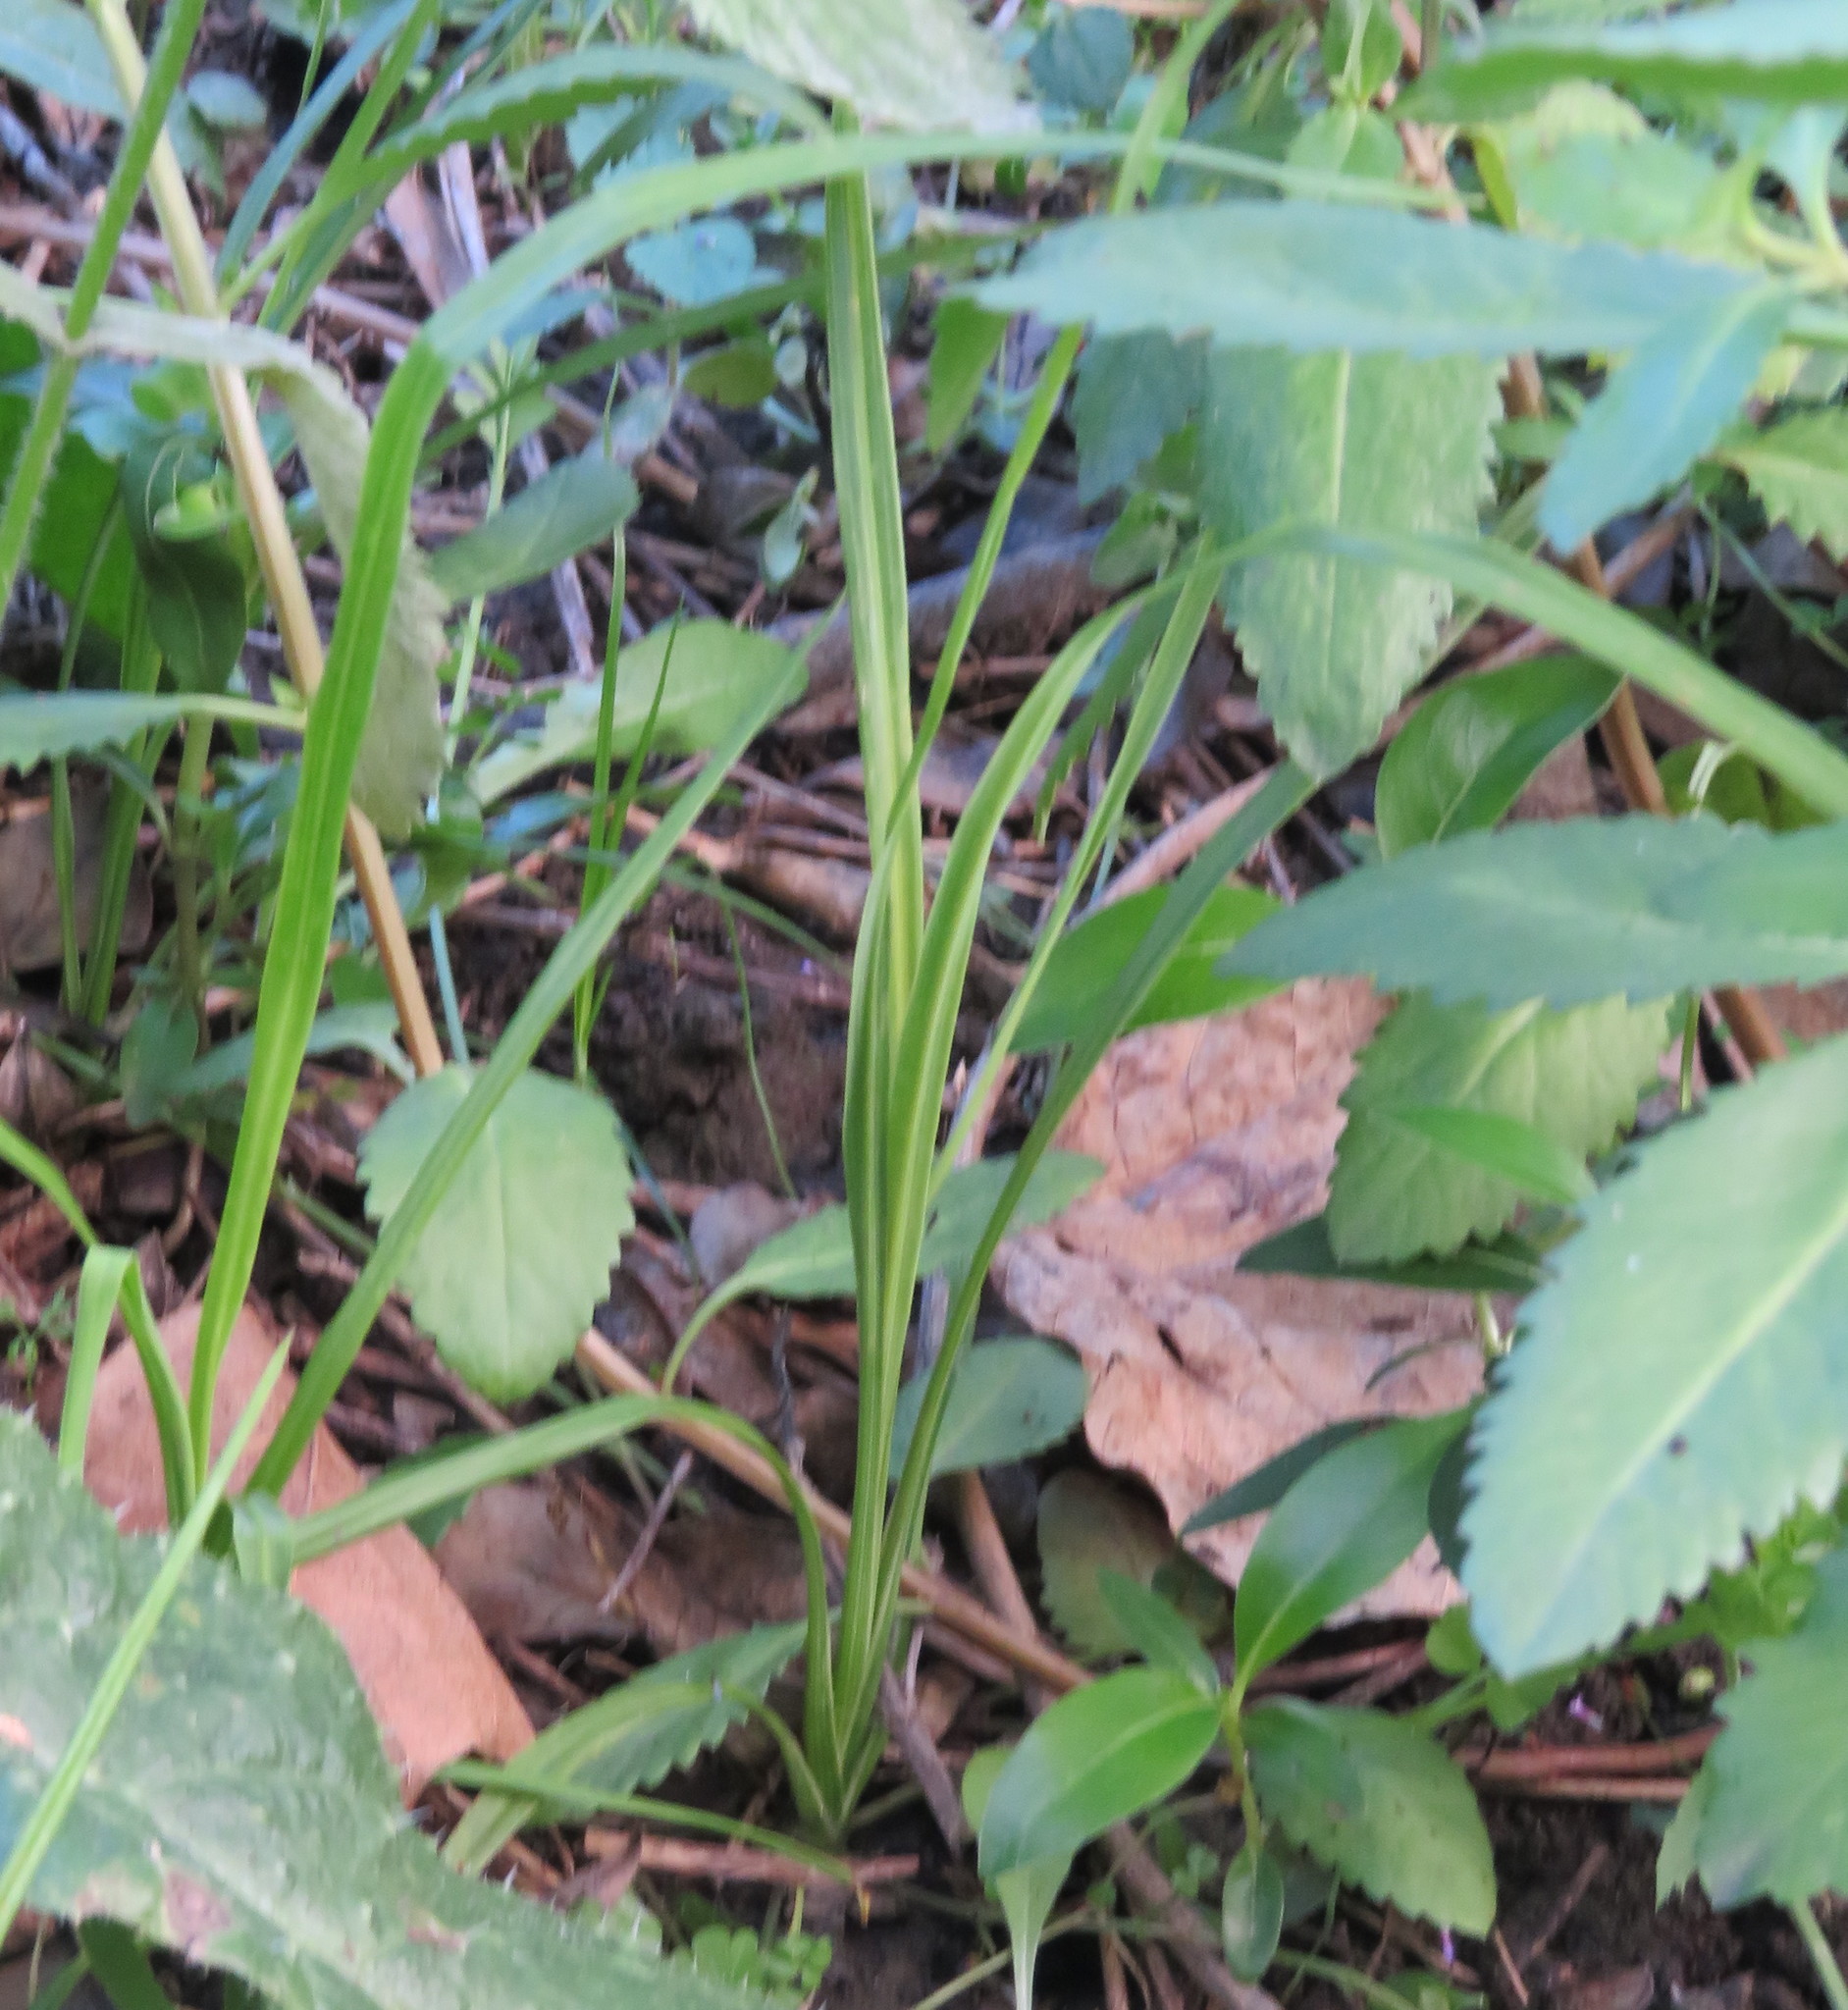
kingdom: Plantae
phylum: Tracheophyta
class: Liliopsida
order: Asparagales
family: Asparagaceae
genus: Cordyline
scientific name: Cordyline australis
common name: Cabbage-palm
